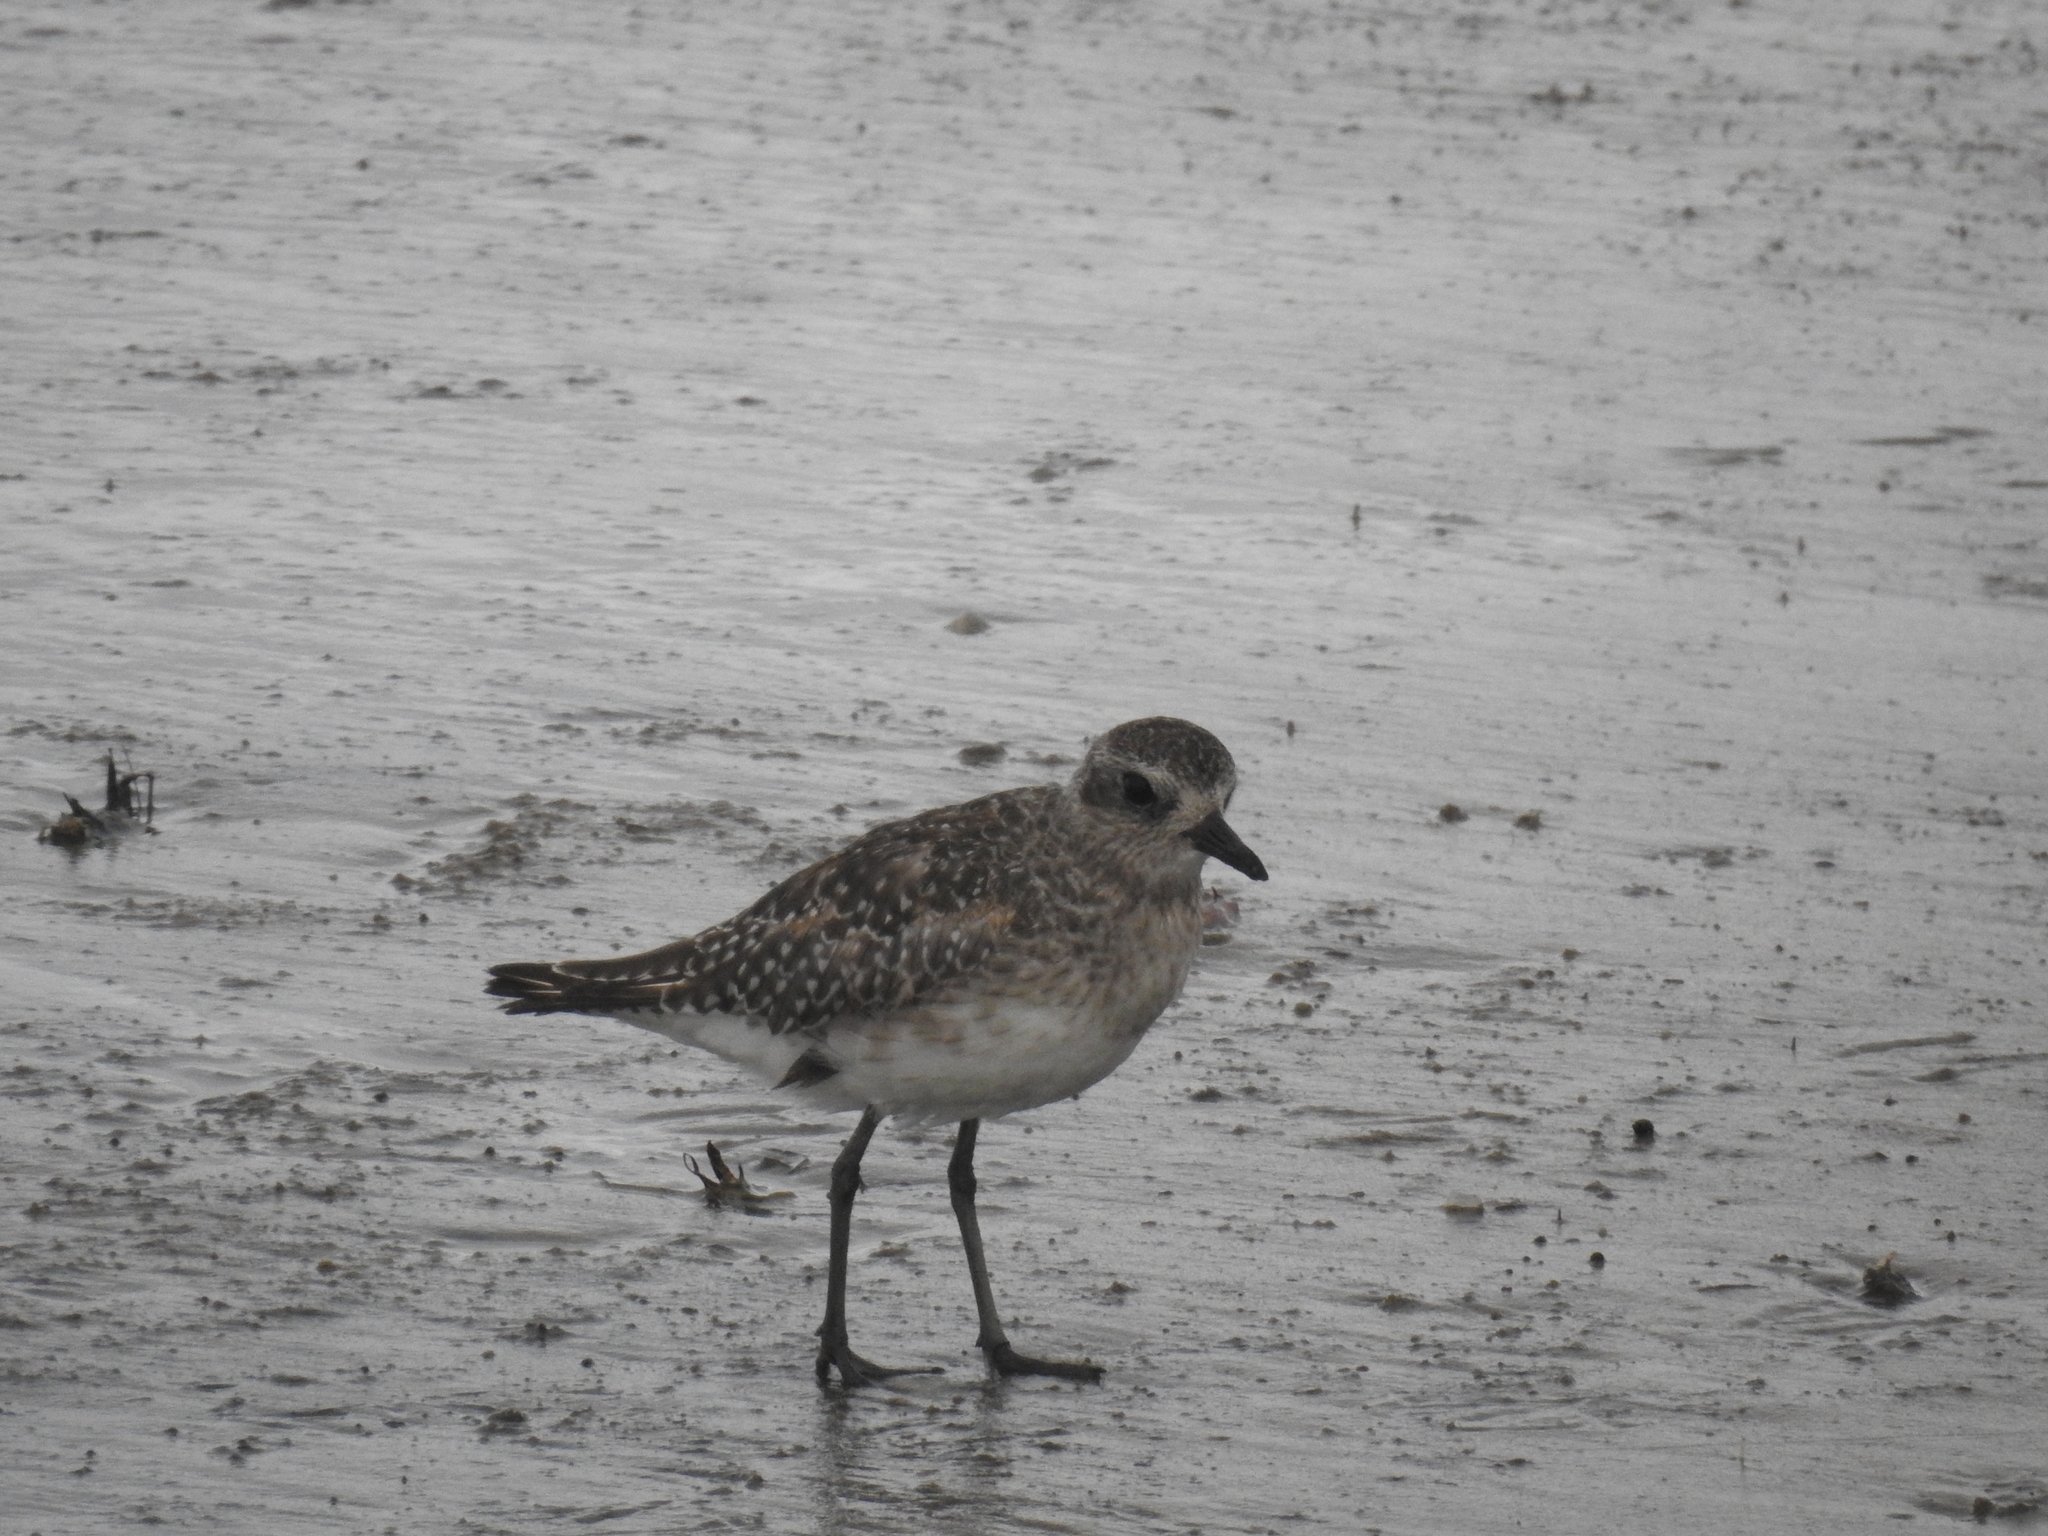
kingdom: Animalia
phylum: Chordata
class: Aves
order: Charadriiformes
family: Charadriidae
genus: Pluvialis
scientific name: Pluvialis squatarola
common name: Grey plover
